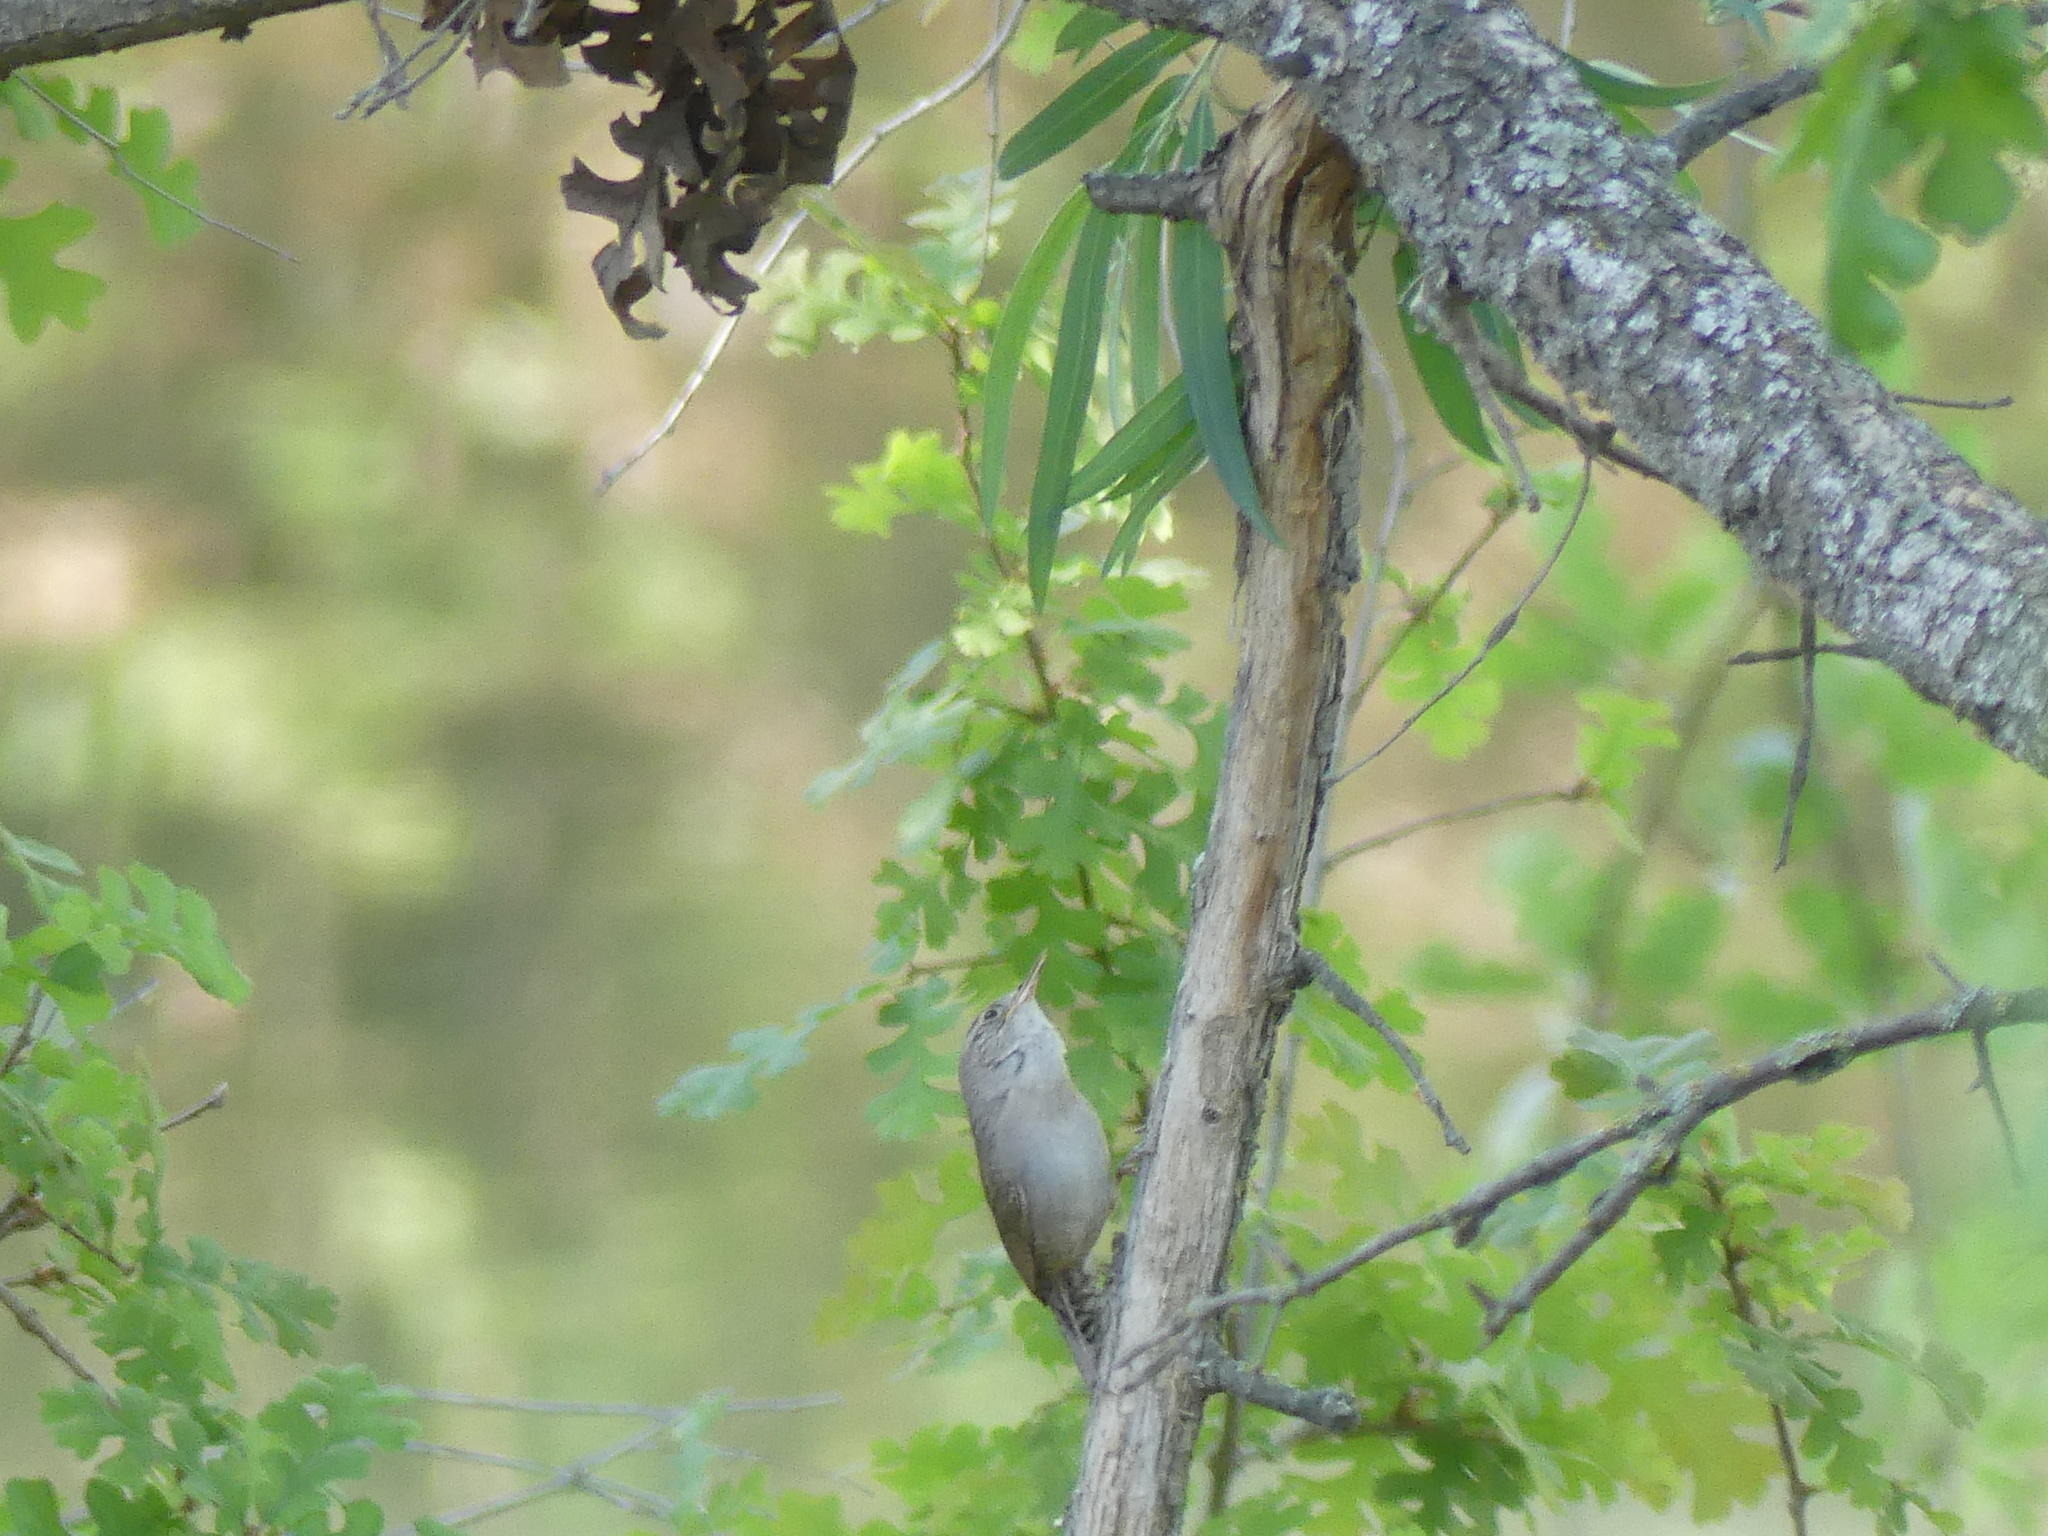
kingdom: Animalia
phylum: Chordata
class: Aves
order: Passeriformes
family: Troglodytidae
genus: Troglodytes
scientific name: Troglodytes aedon
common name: House wren
